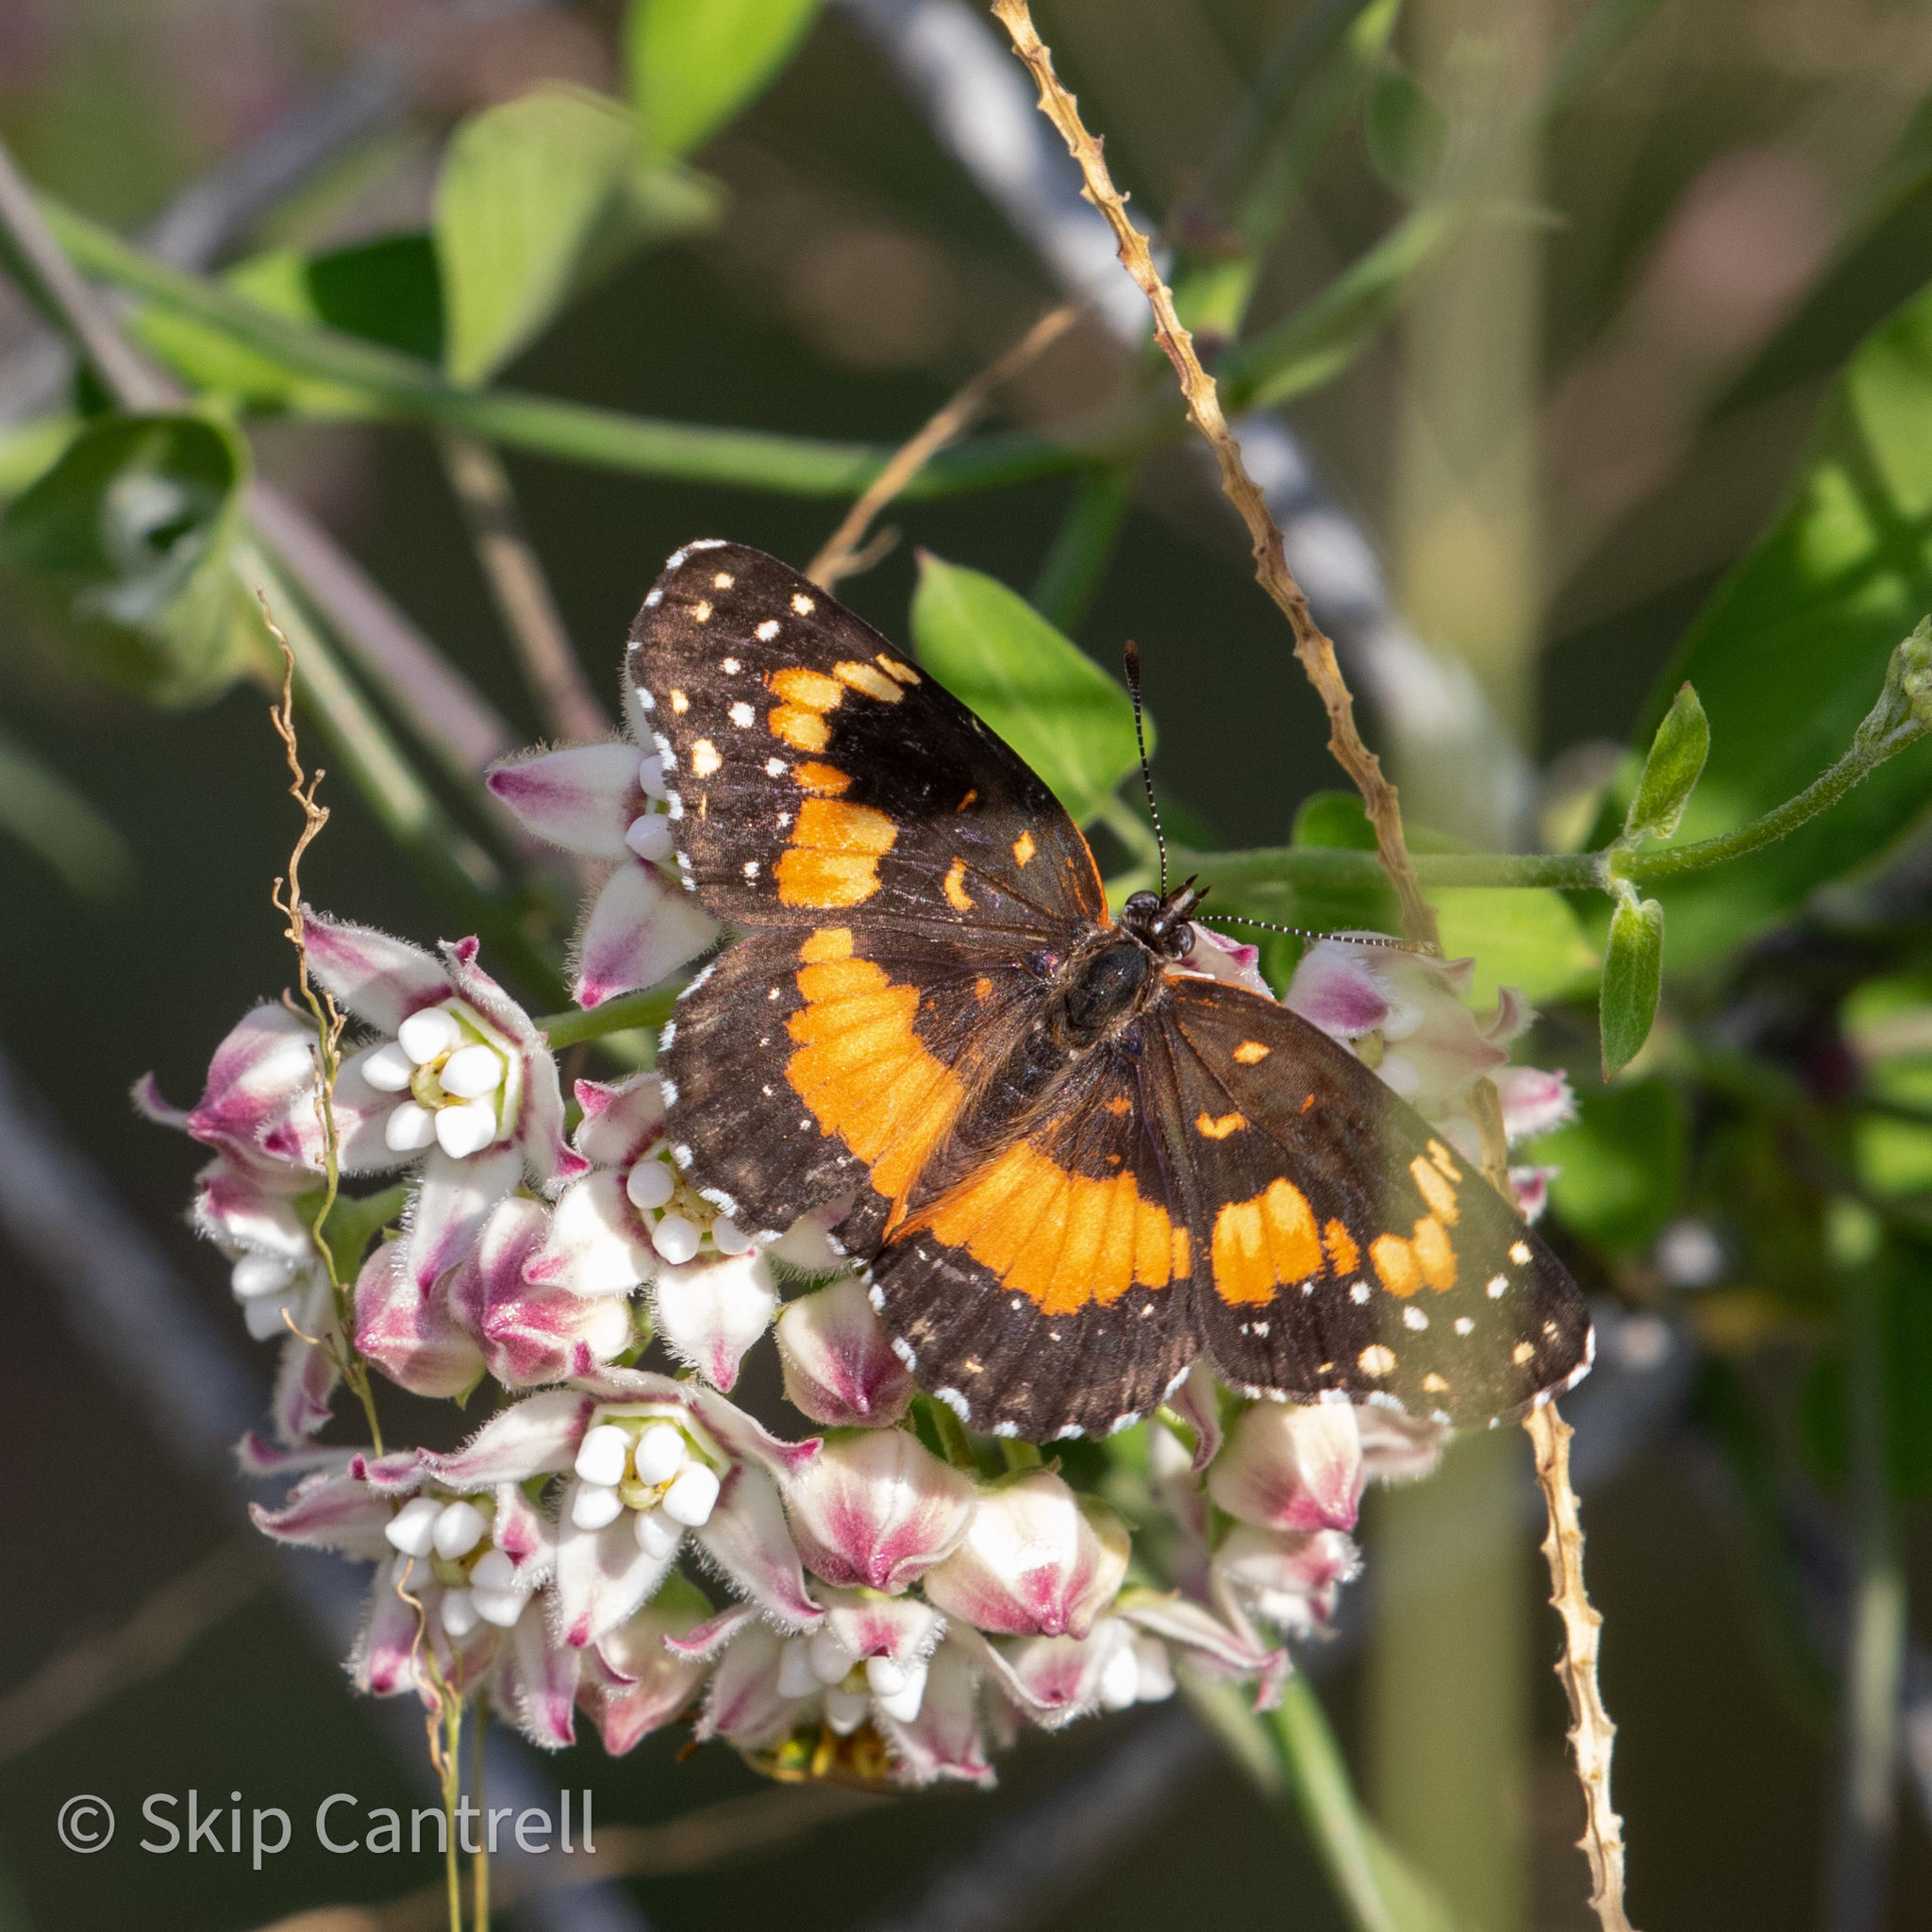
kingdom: Animalia
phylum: Arthropoda
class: Insecta
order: Lepidoptera
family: Nymphalidae
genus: Chlosyne
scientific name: Chlosyne lacinia
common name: Bordered patch
